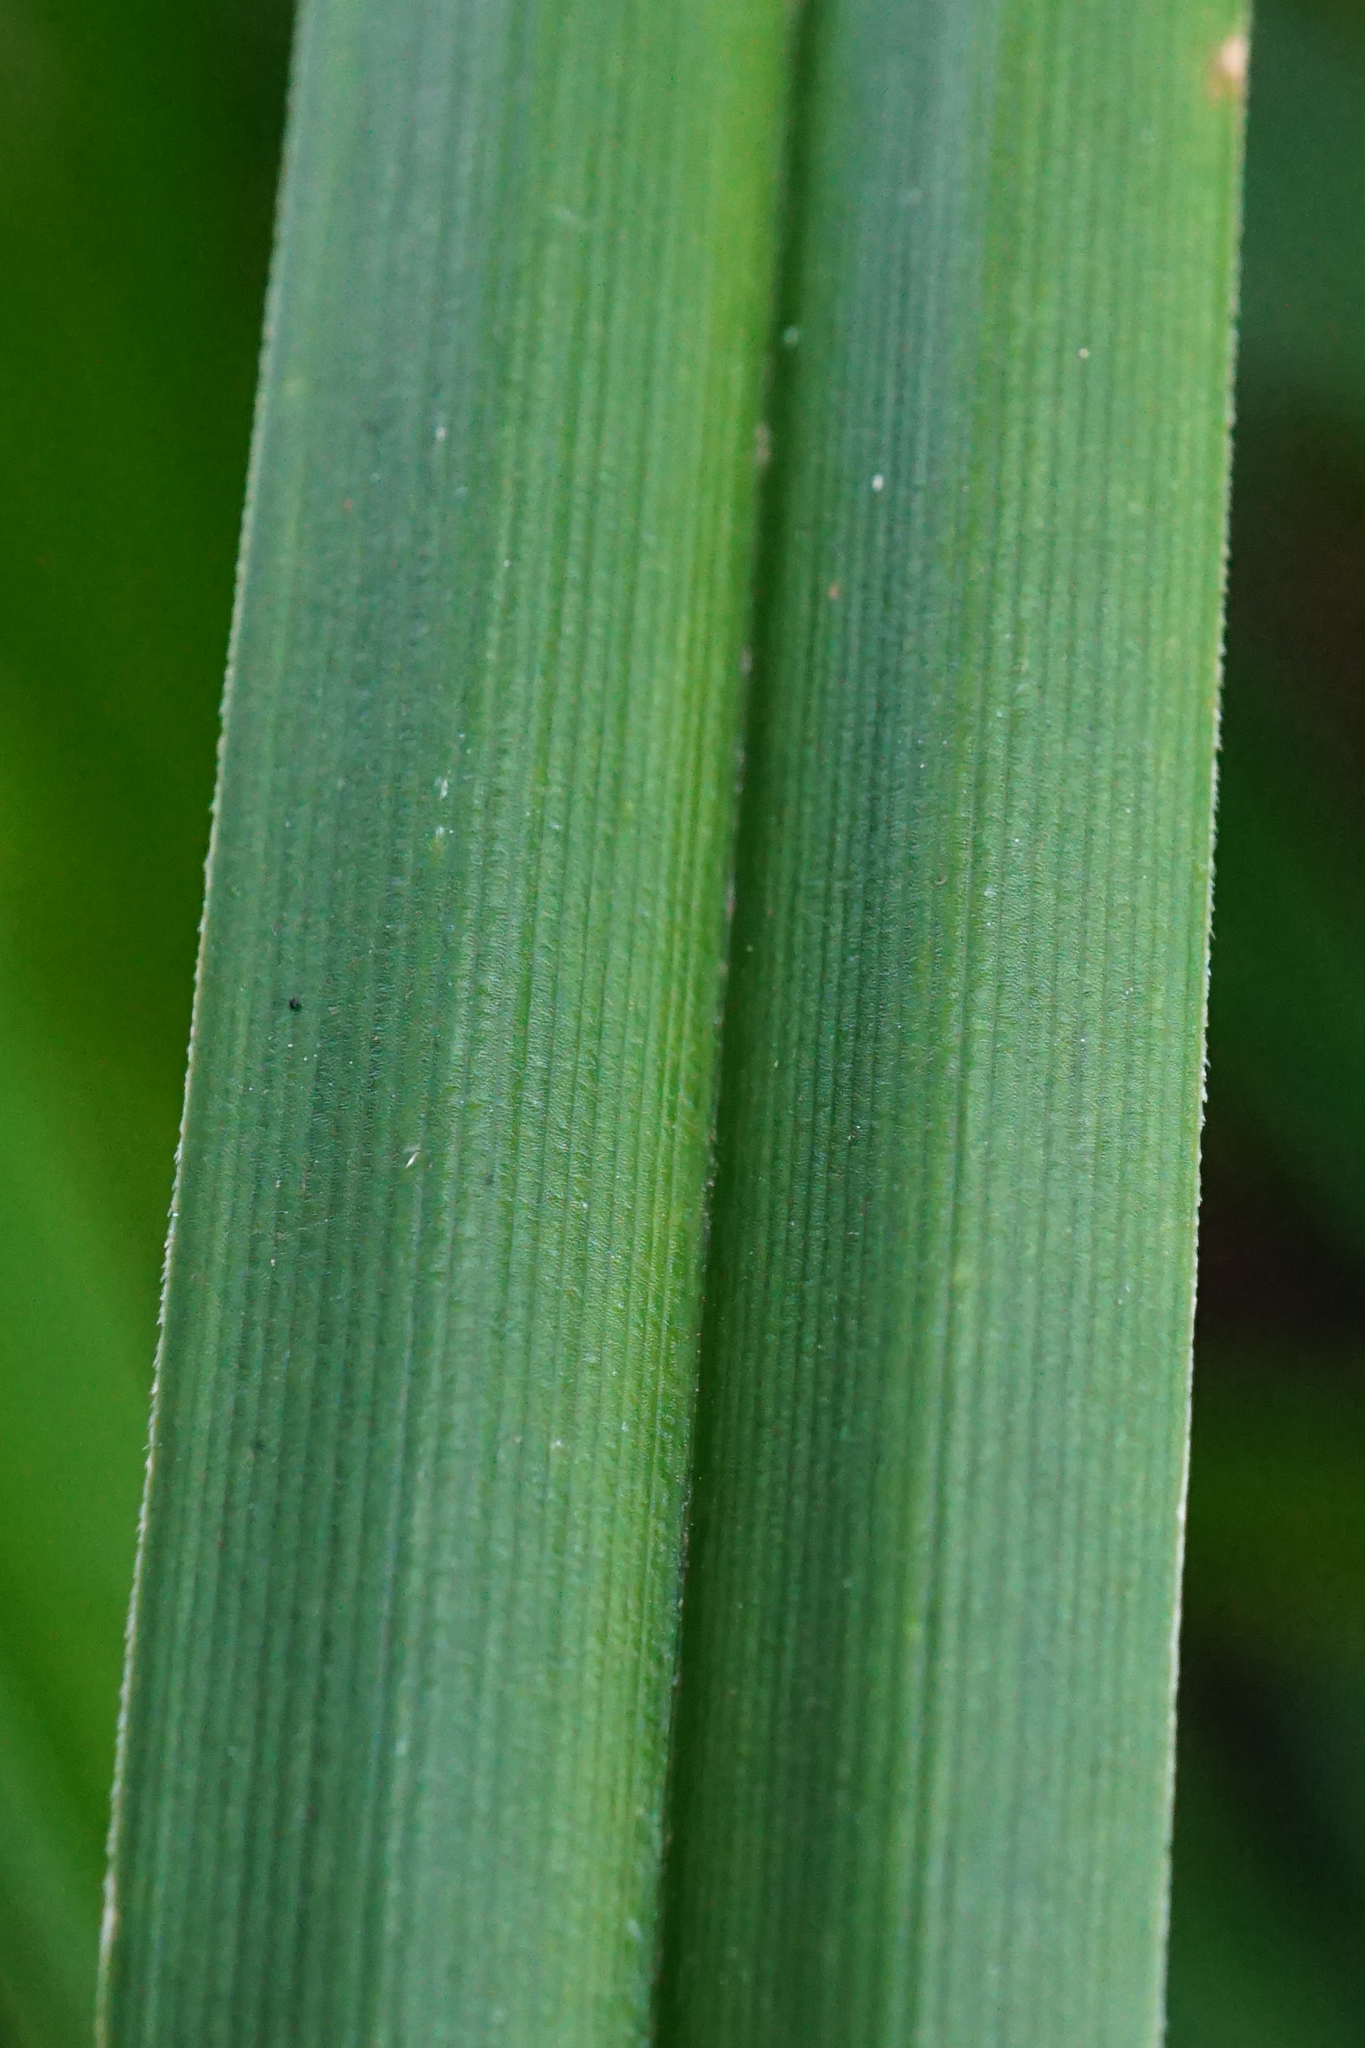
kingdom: Plantae
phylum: Tracheophyta
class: Liliopsida
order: Poales
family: Cyperaceae
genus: Scirpus
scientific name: Scirpus sylvaticus
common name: Wood club-rush
